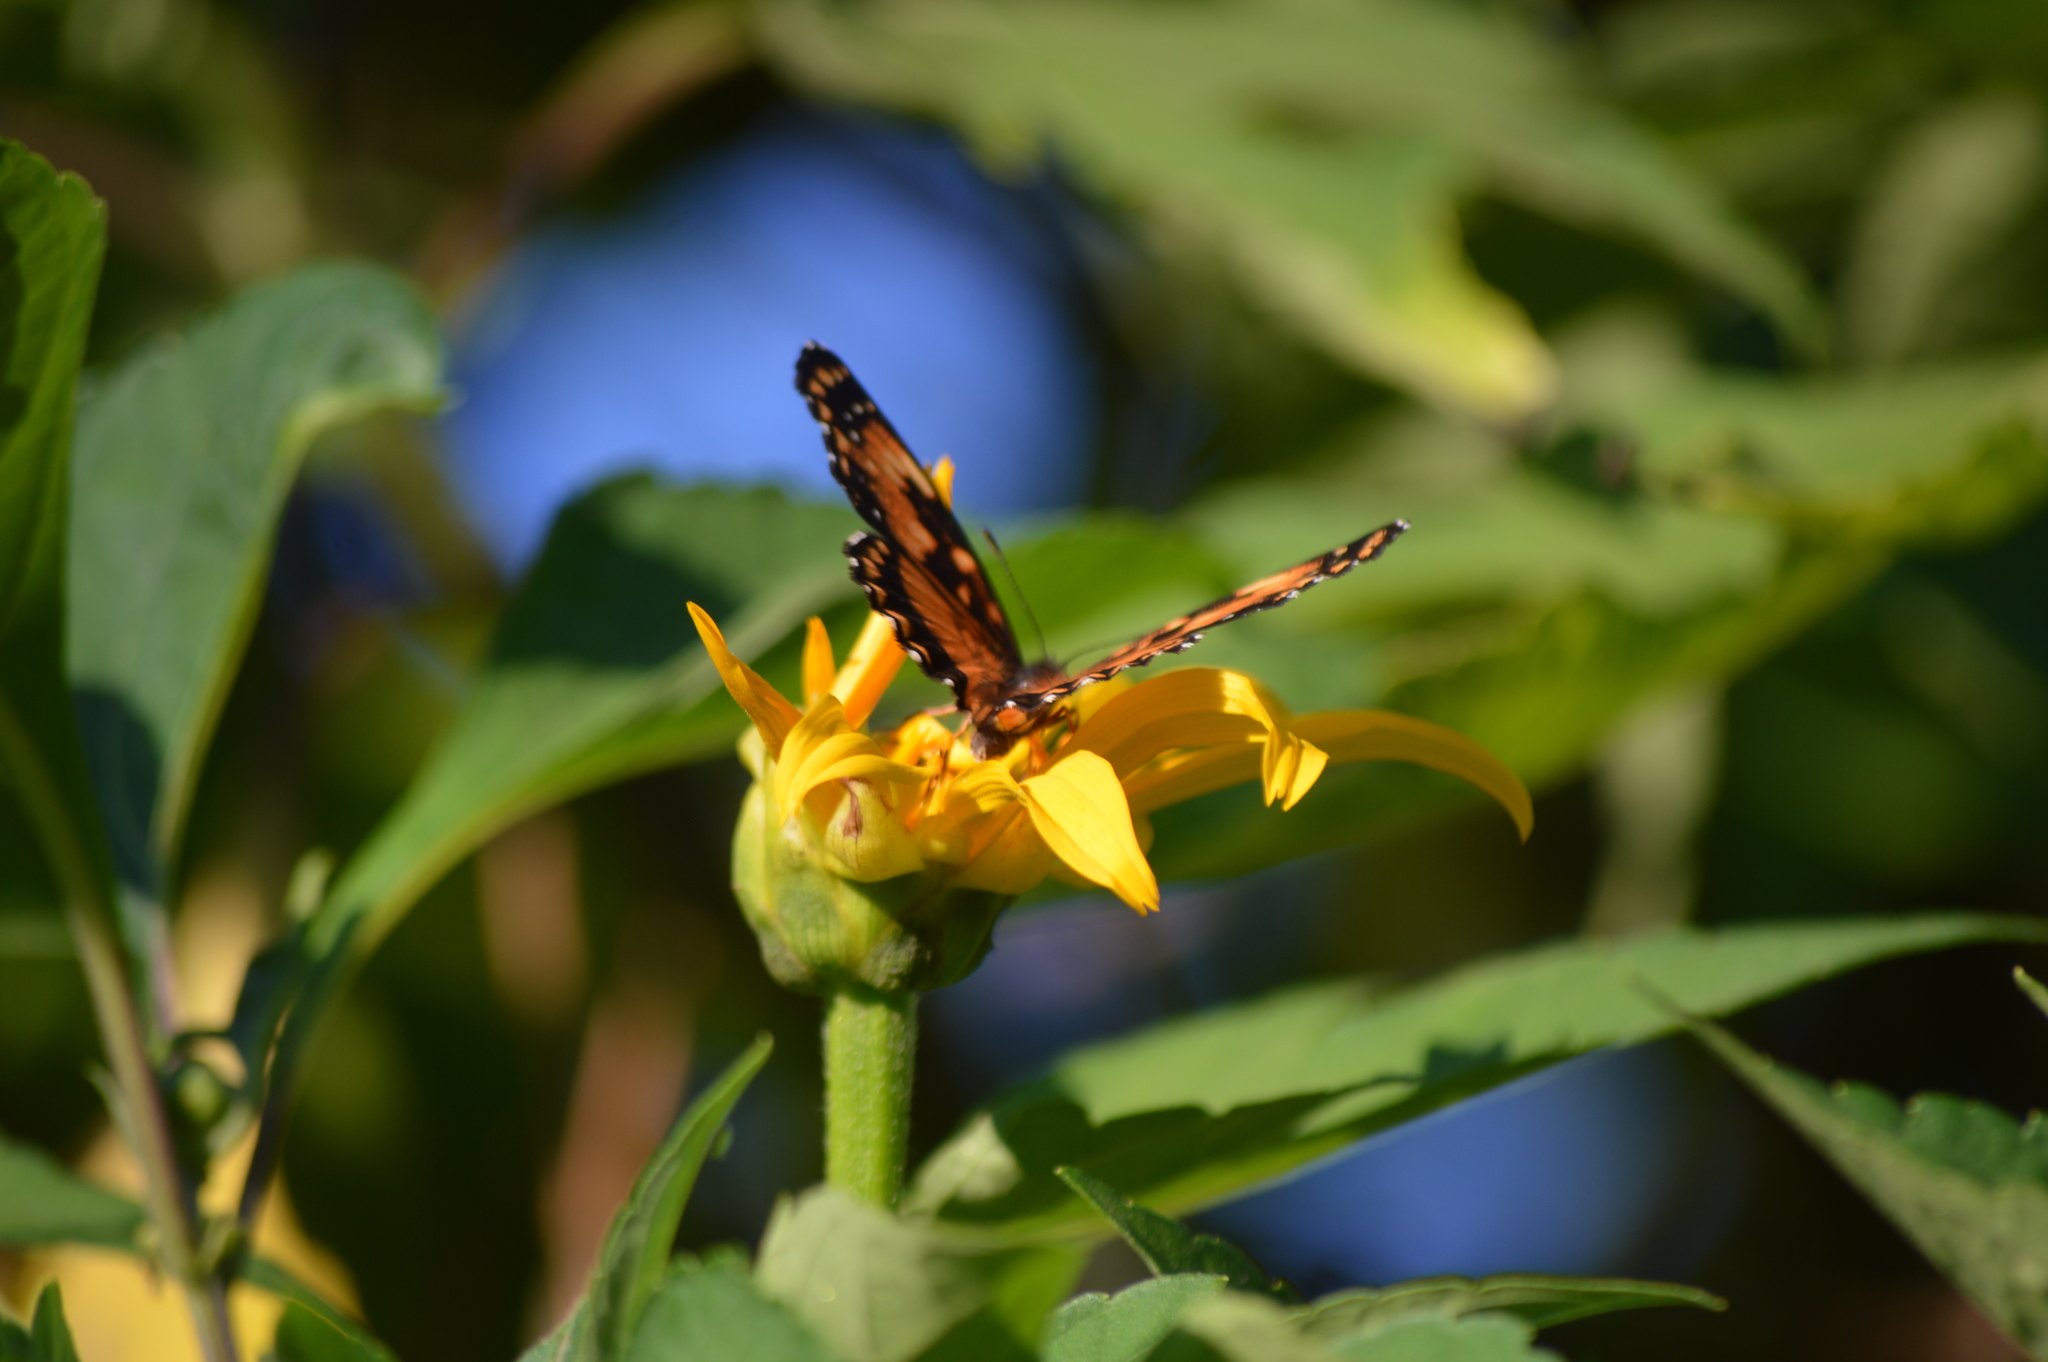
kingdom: Animalia
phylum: Arthropoda
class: Insecta
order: Lepidoptera
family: Nymphalidae
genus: Chlosyne
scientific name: Chlosyne lacinia
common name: Bordered patch
